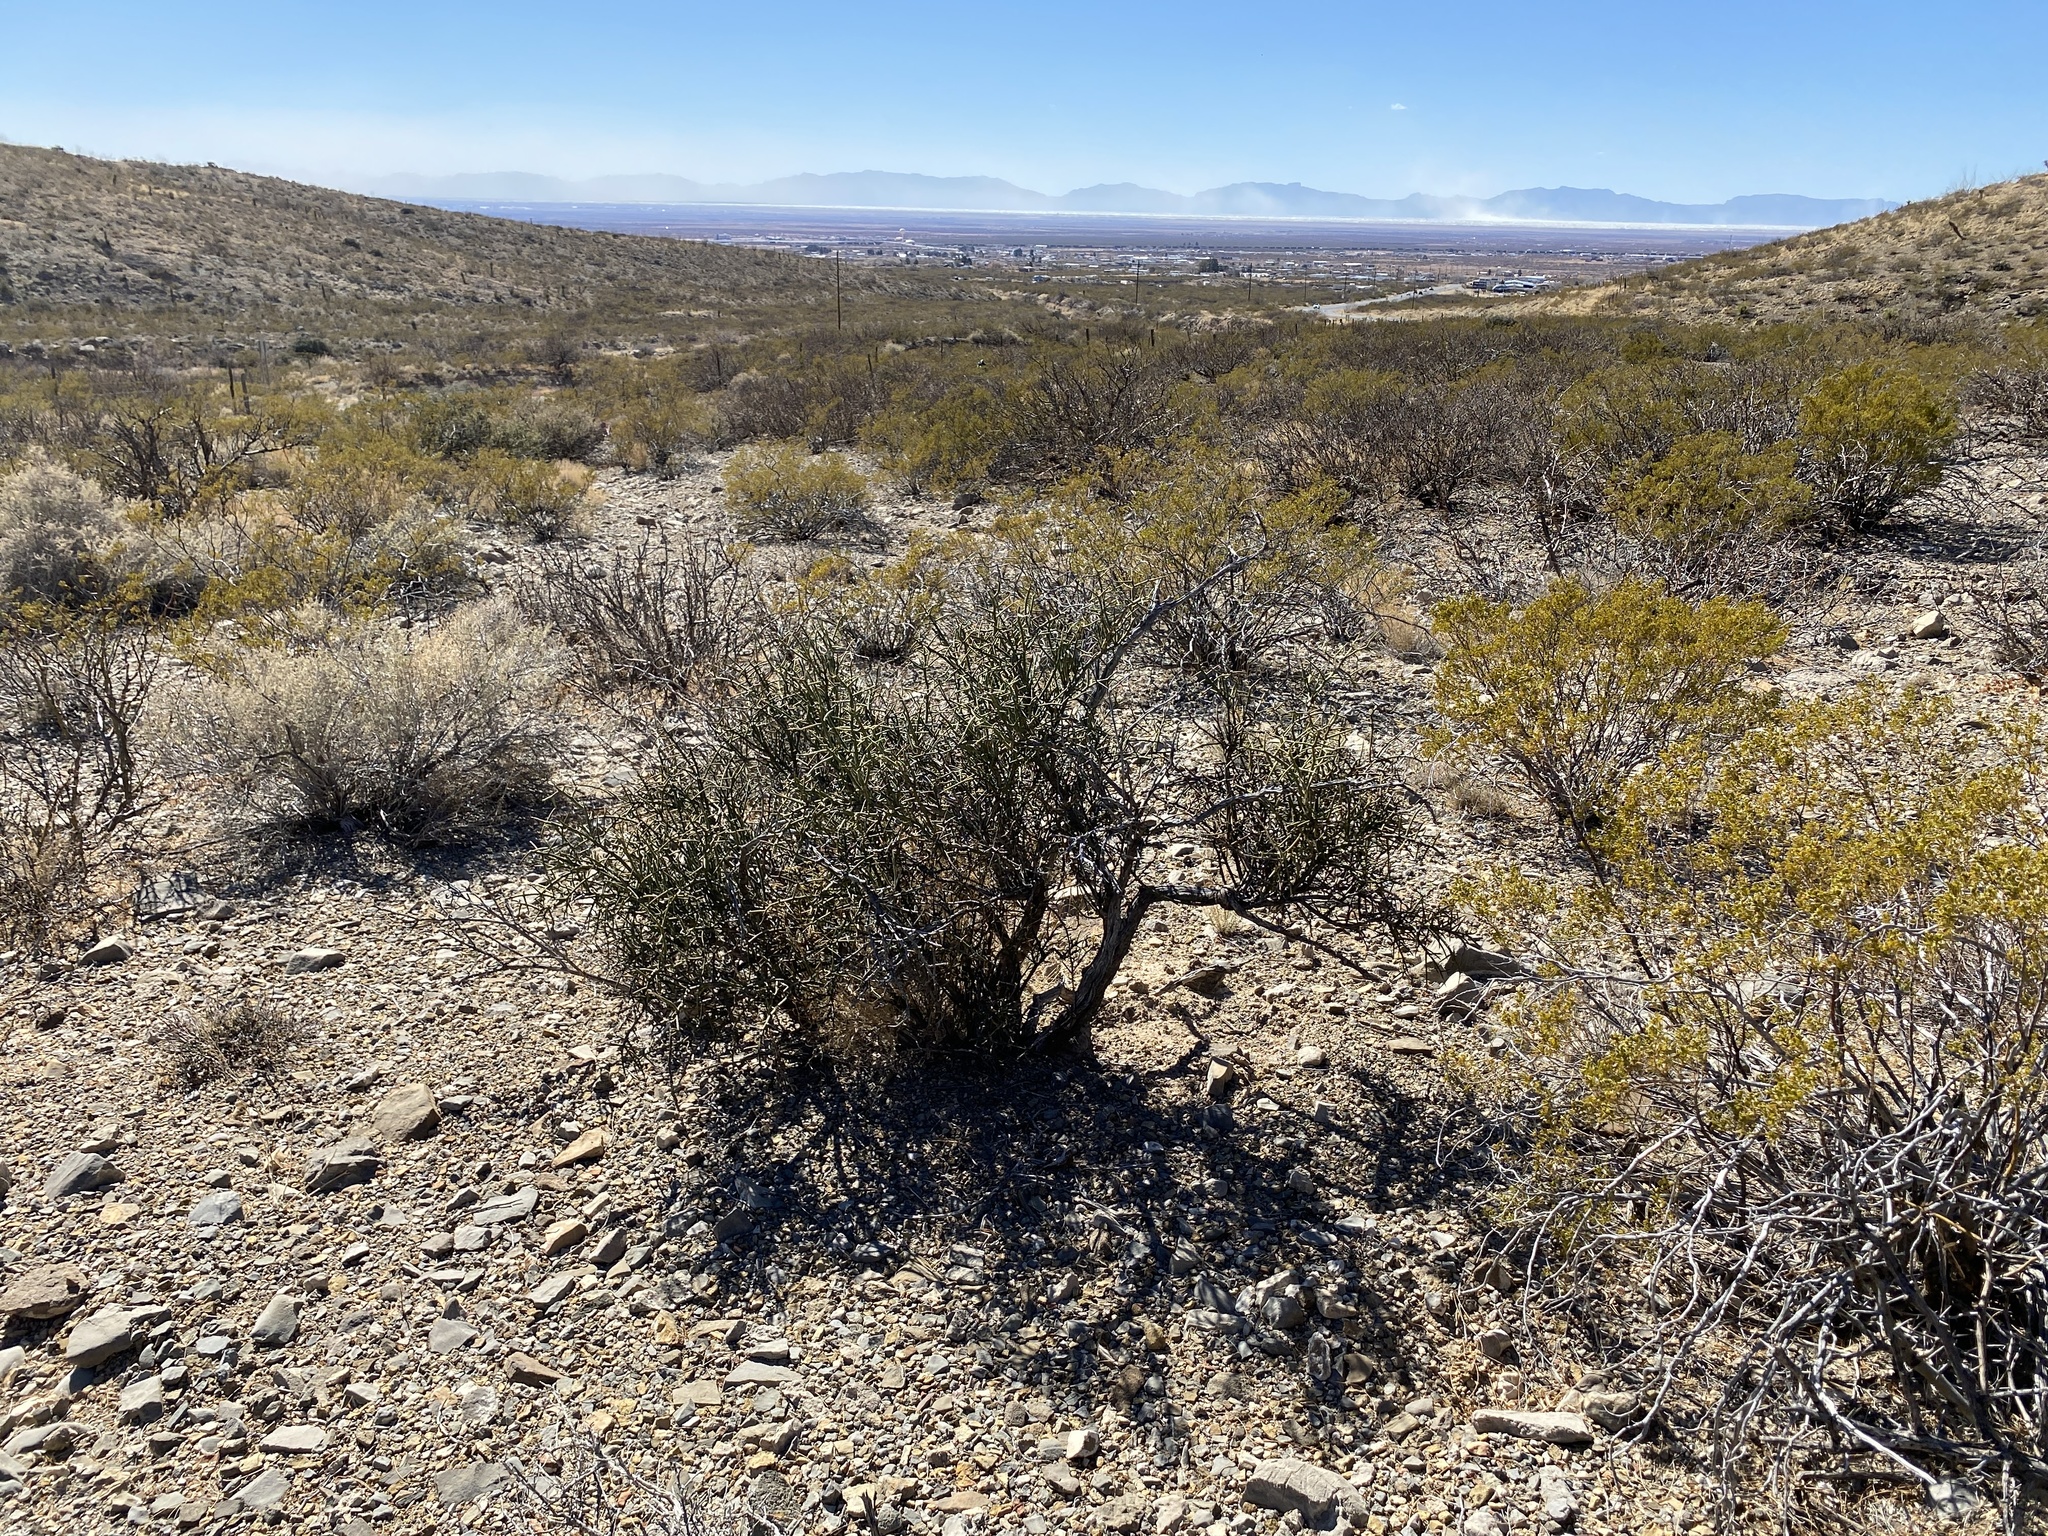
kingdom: Plantae
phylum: Tracheophyta
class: Magnoliopsida
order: Brassicales
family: Koeberliniaceae
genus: Koeberlinia
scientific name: Koeberlinia spinosa
